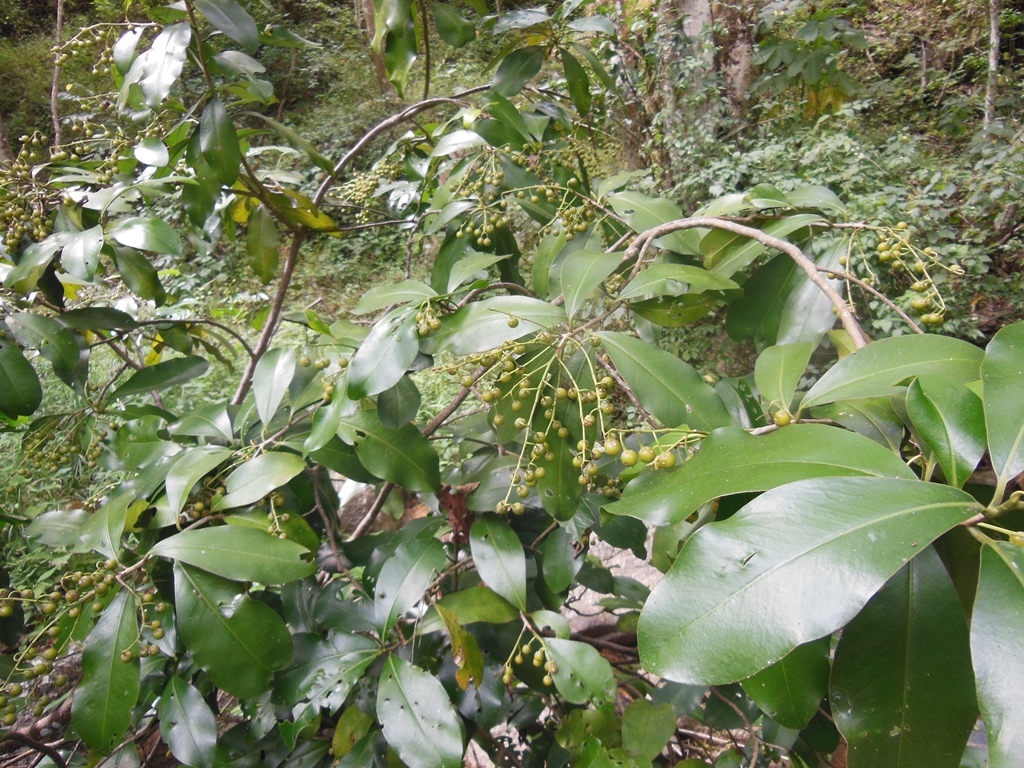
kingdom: Plantae
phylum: Tracheophyta
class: Magnoliopsida
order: Ericales
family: Primulaceae
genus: Ardisia
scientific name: Ardisia paschalis
